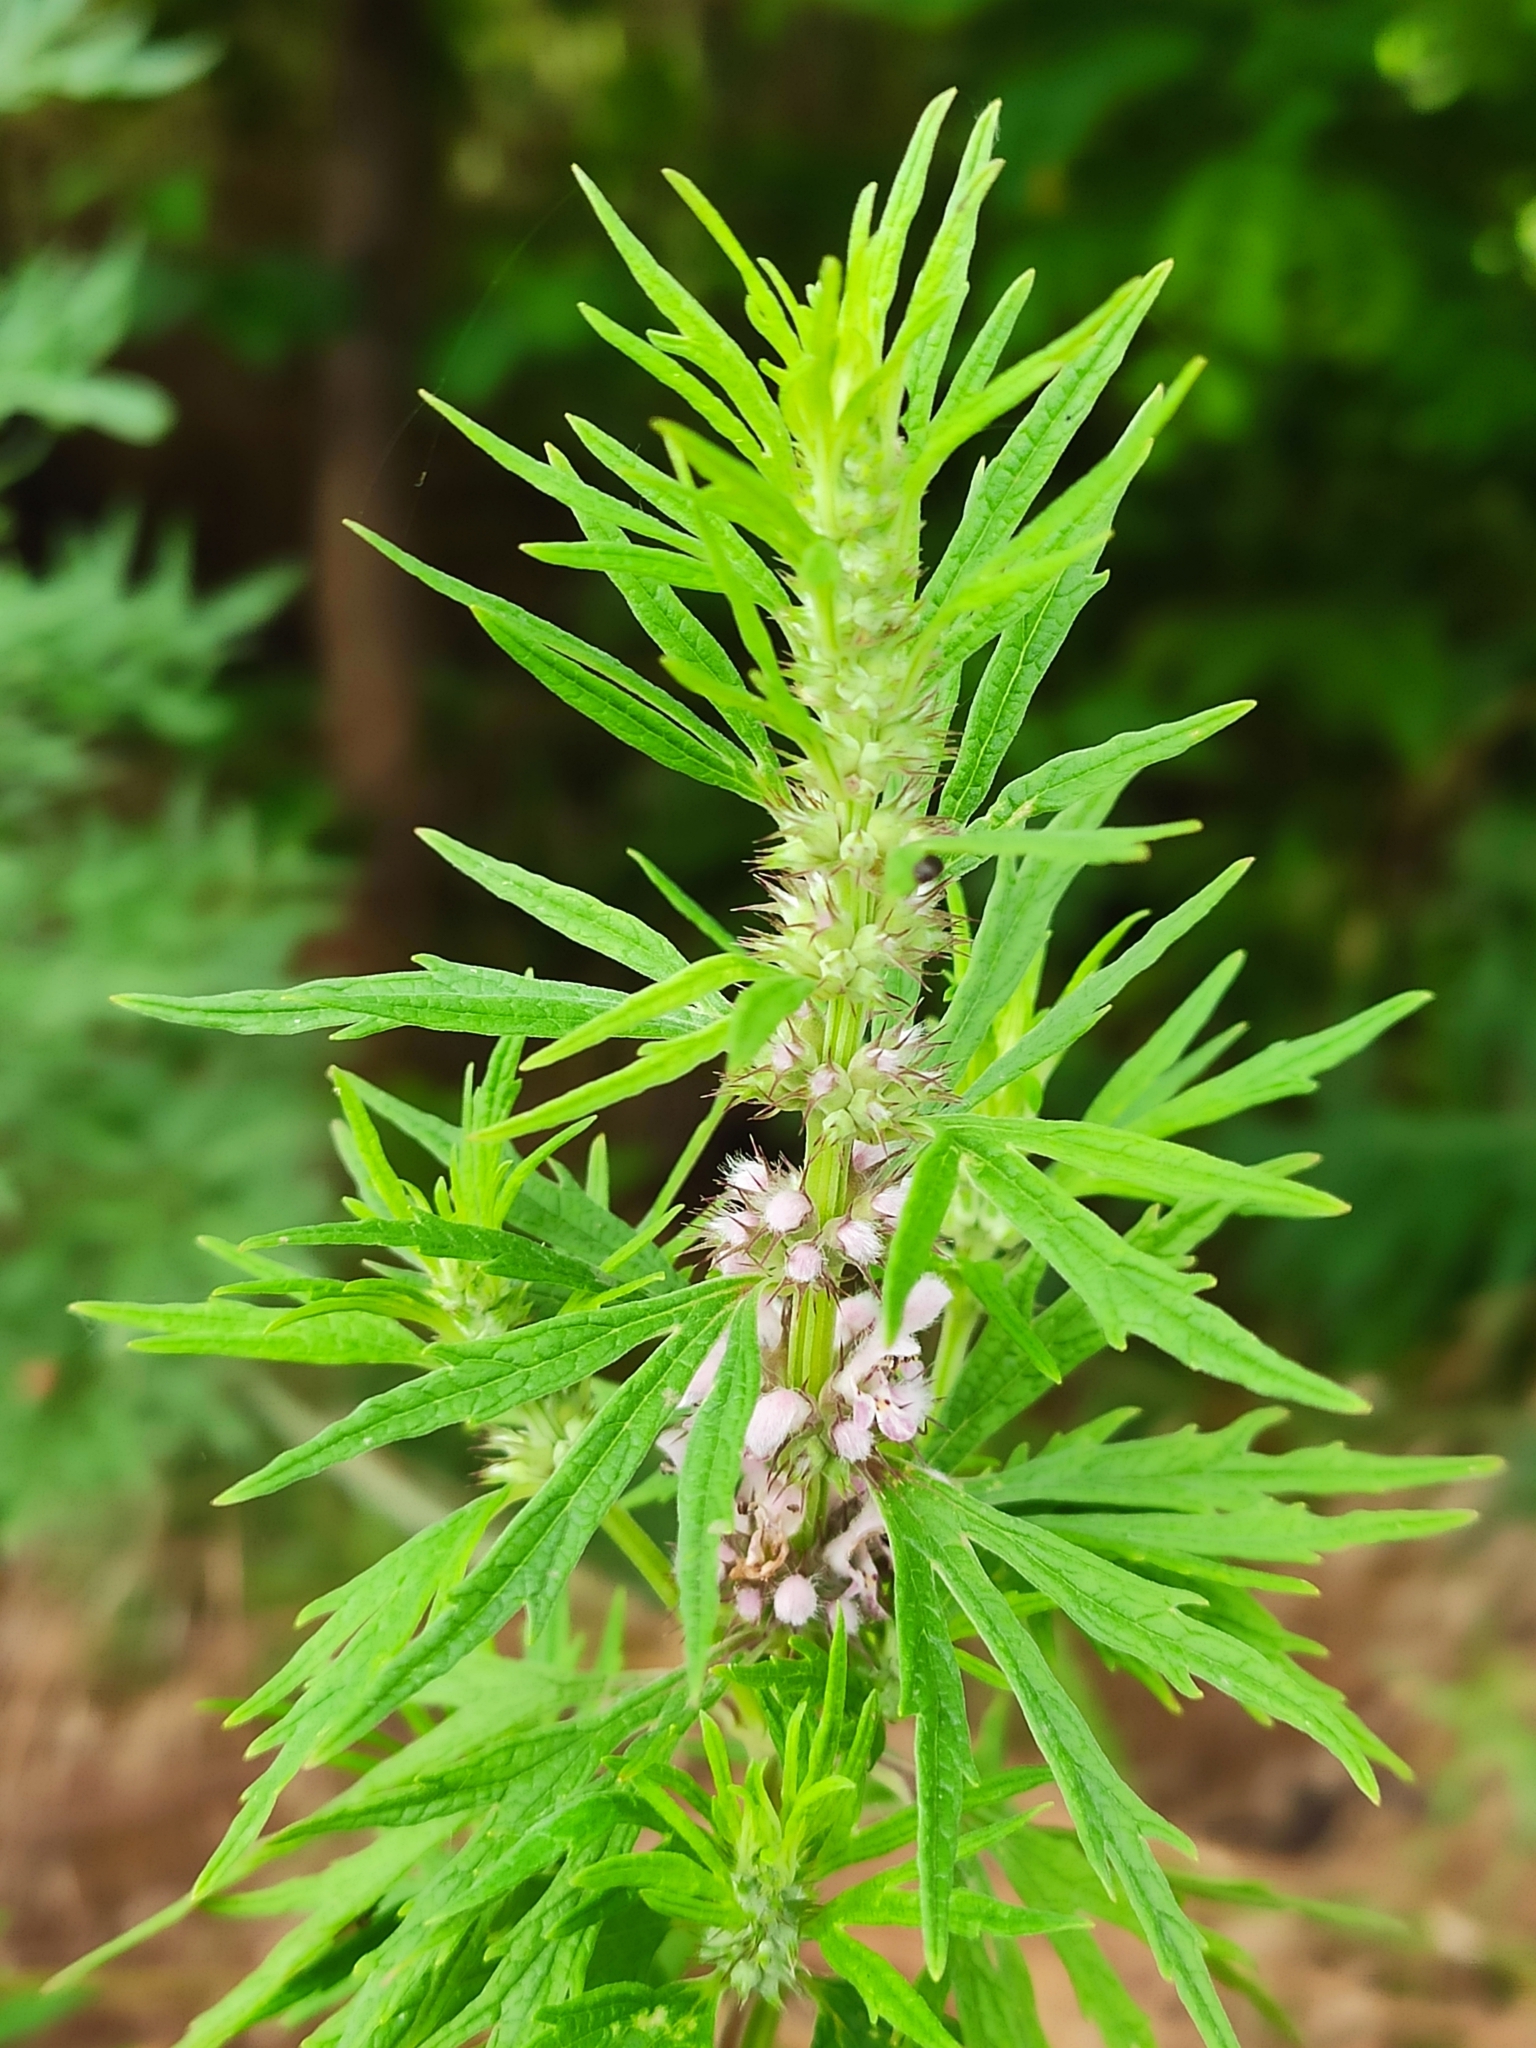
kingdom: Plantae
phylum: Tracheophyta
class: Magnoliopsida
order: Lamiales
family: Lamiaceae
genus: Leonurus
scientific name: Leonurus glaucescens
